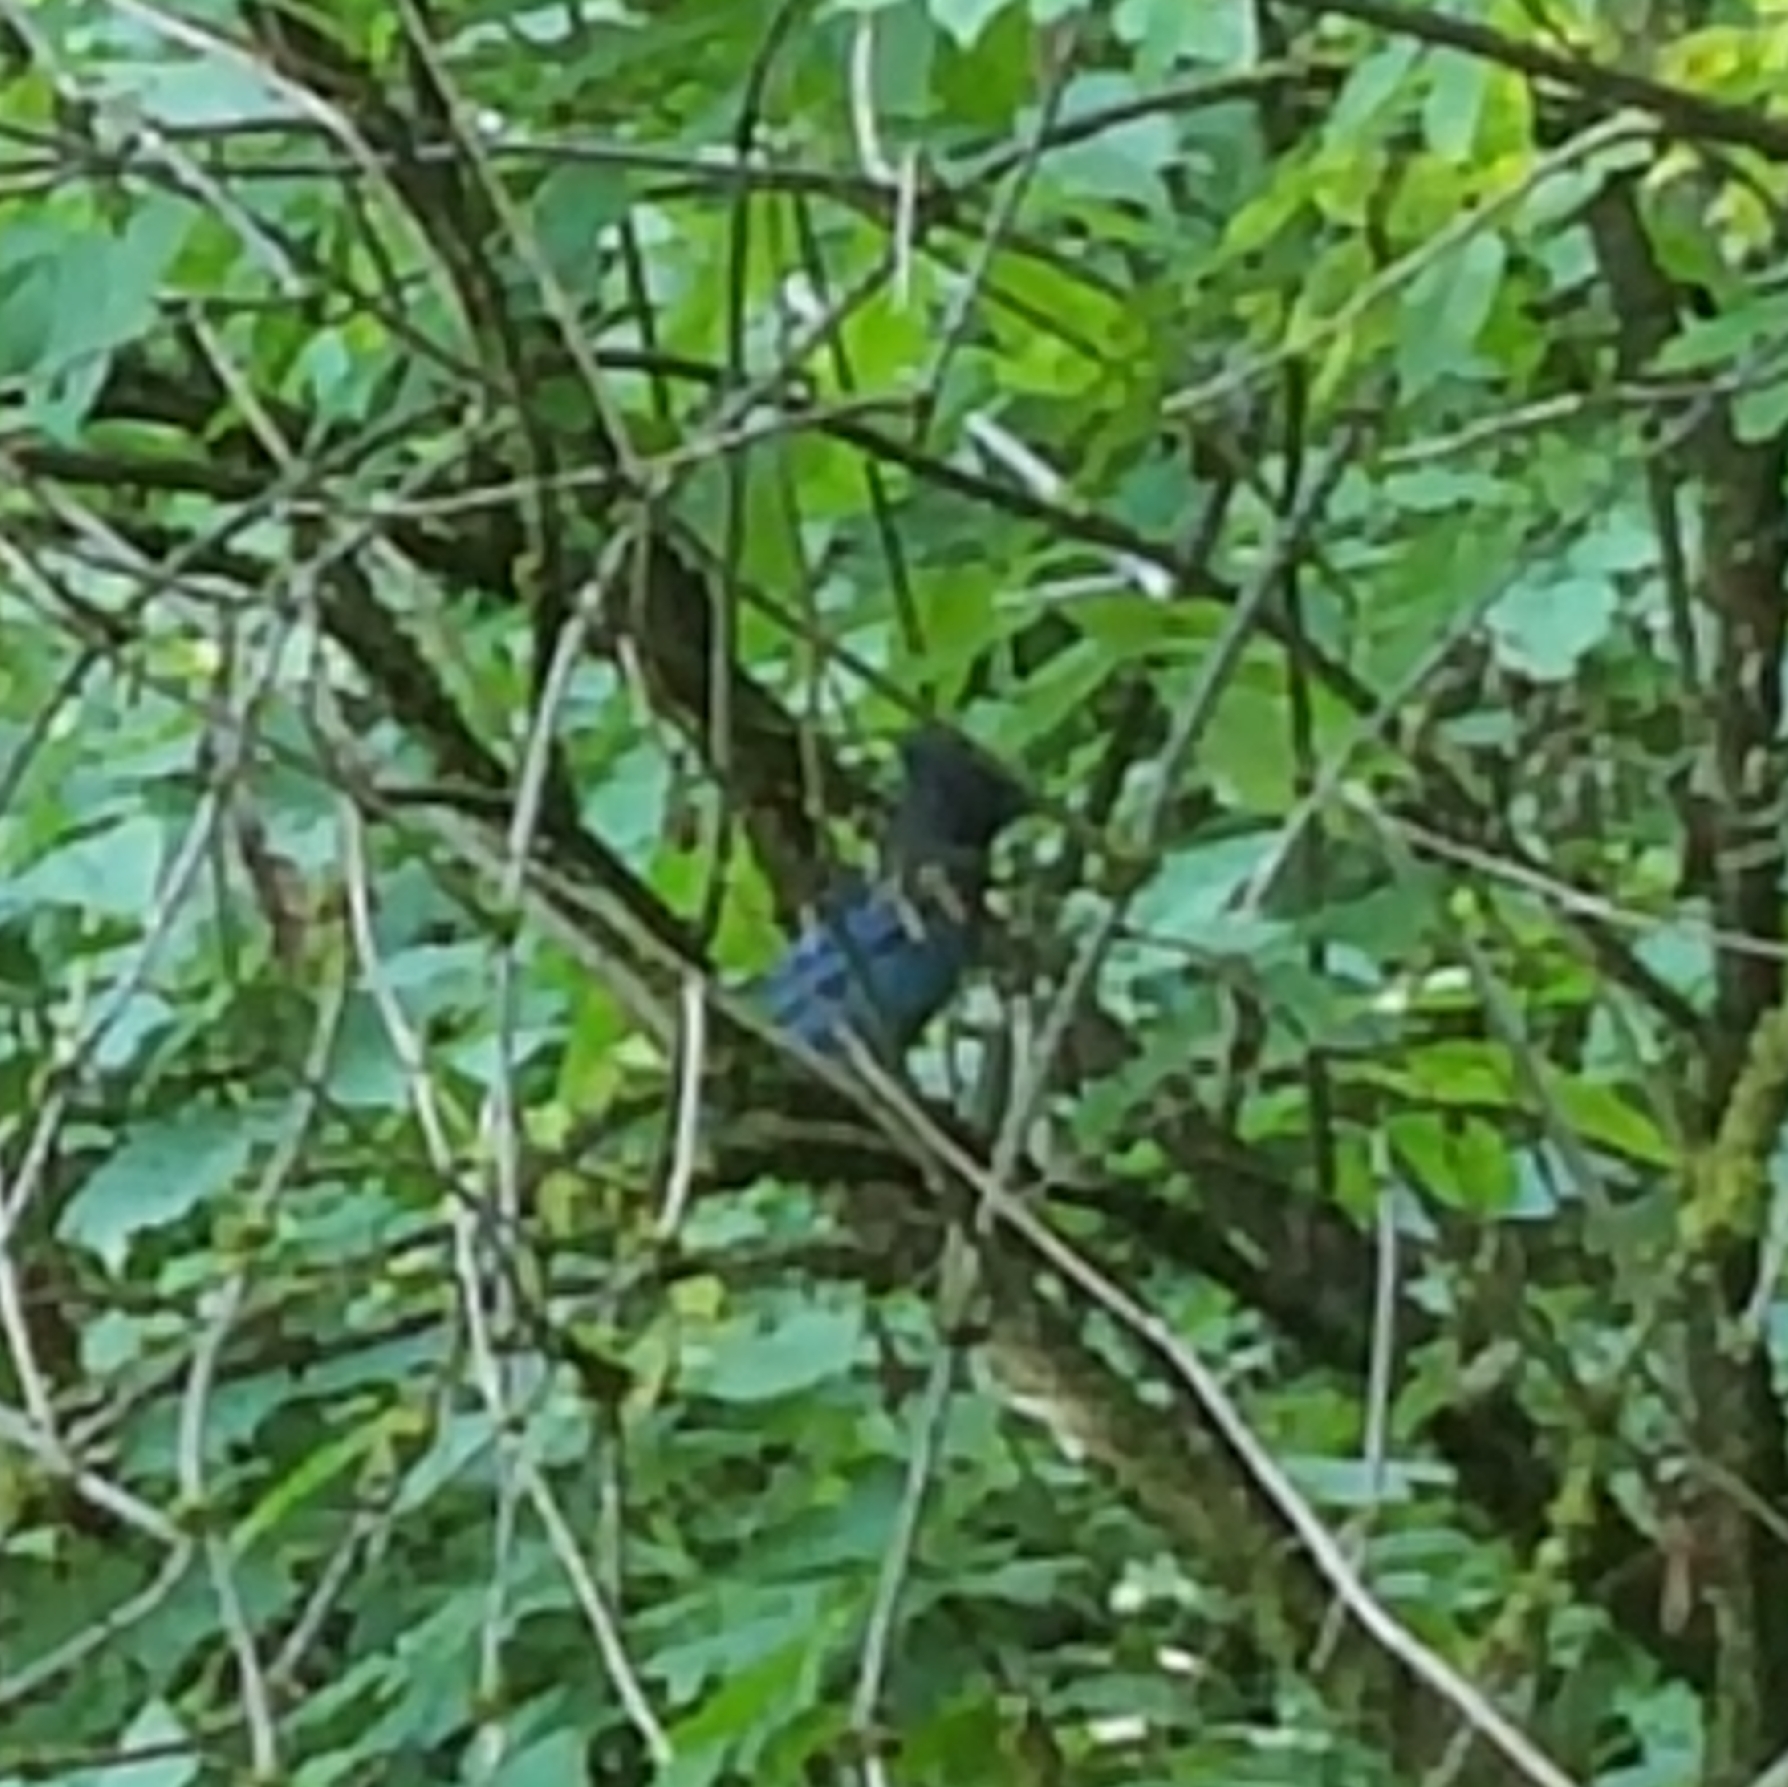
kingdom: Animalia
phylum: Chordata
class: Aves
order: Passeriformes
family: Corvidae
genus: Cyanocitta
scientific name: Cyanocitta stelleri
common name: Steller's jay
